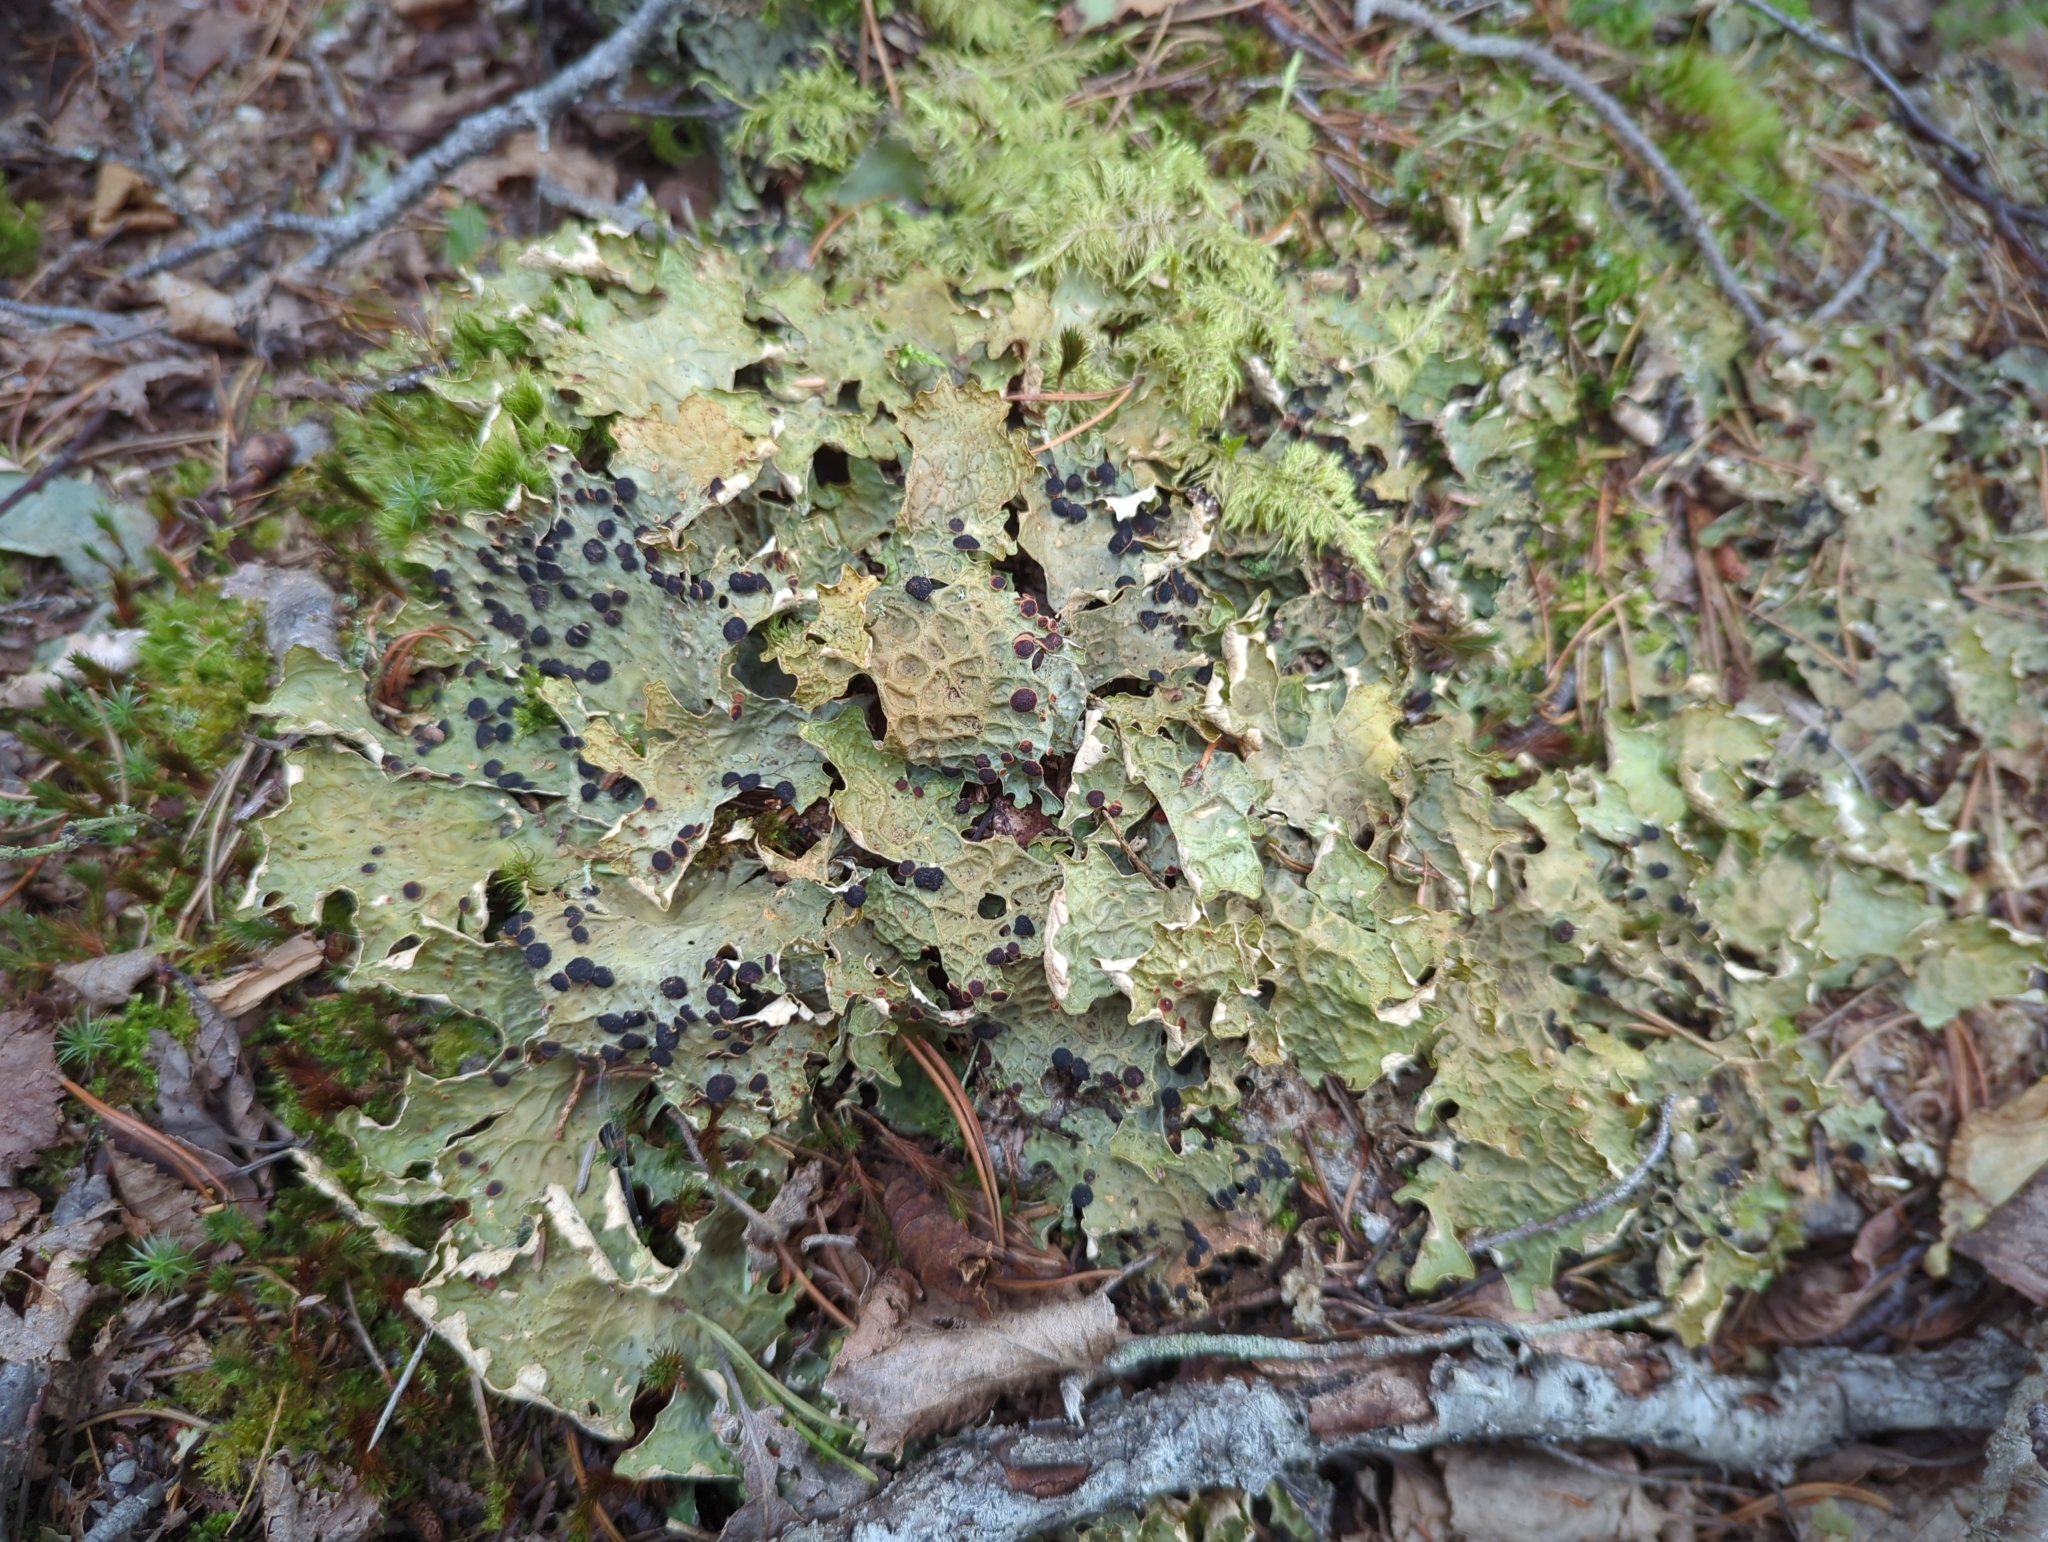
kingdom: Fungi
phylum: Ascomycota
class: Lecanoromycetes
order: Peltigerales
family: Lobariaceae
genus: Lobaria
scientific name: Lobaria linita
